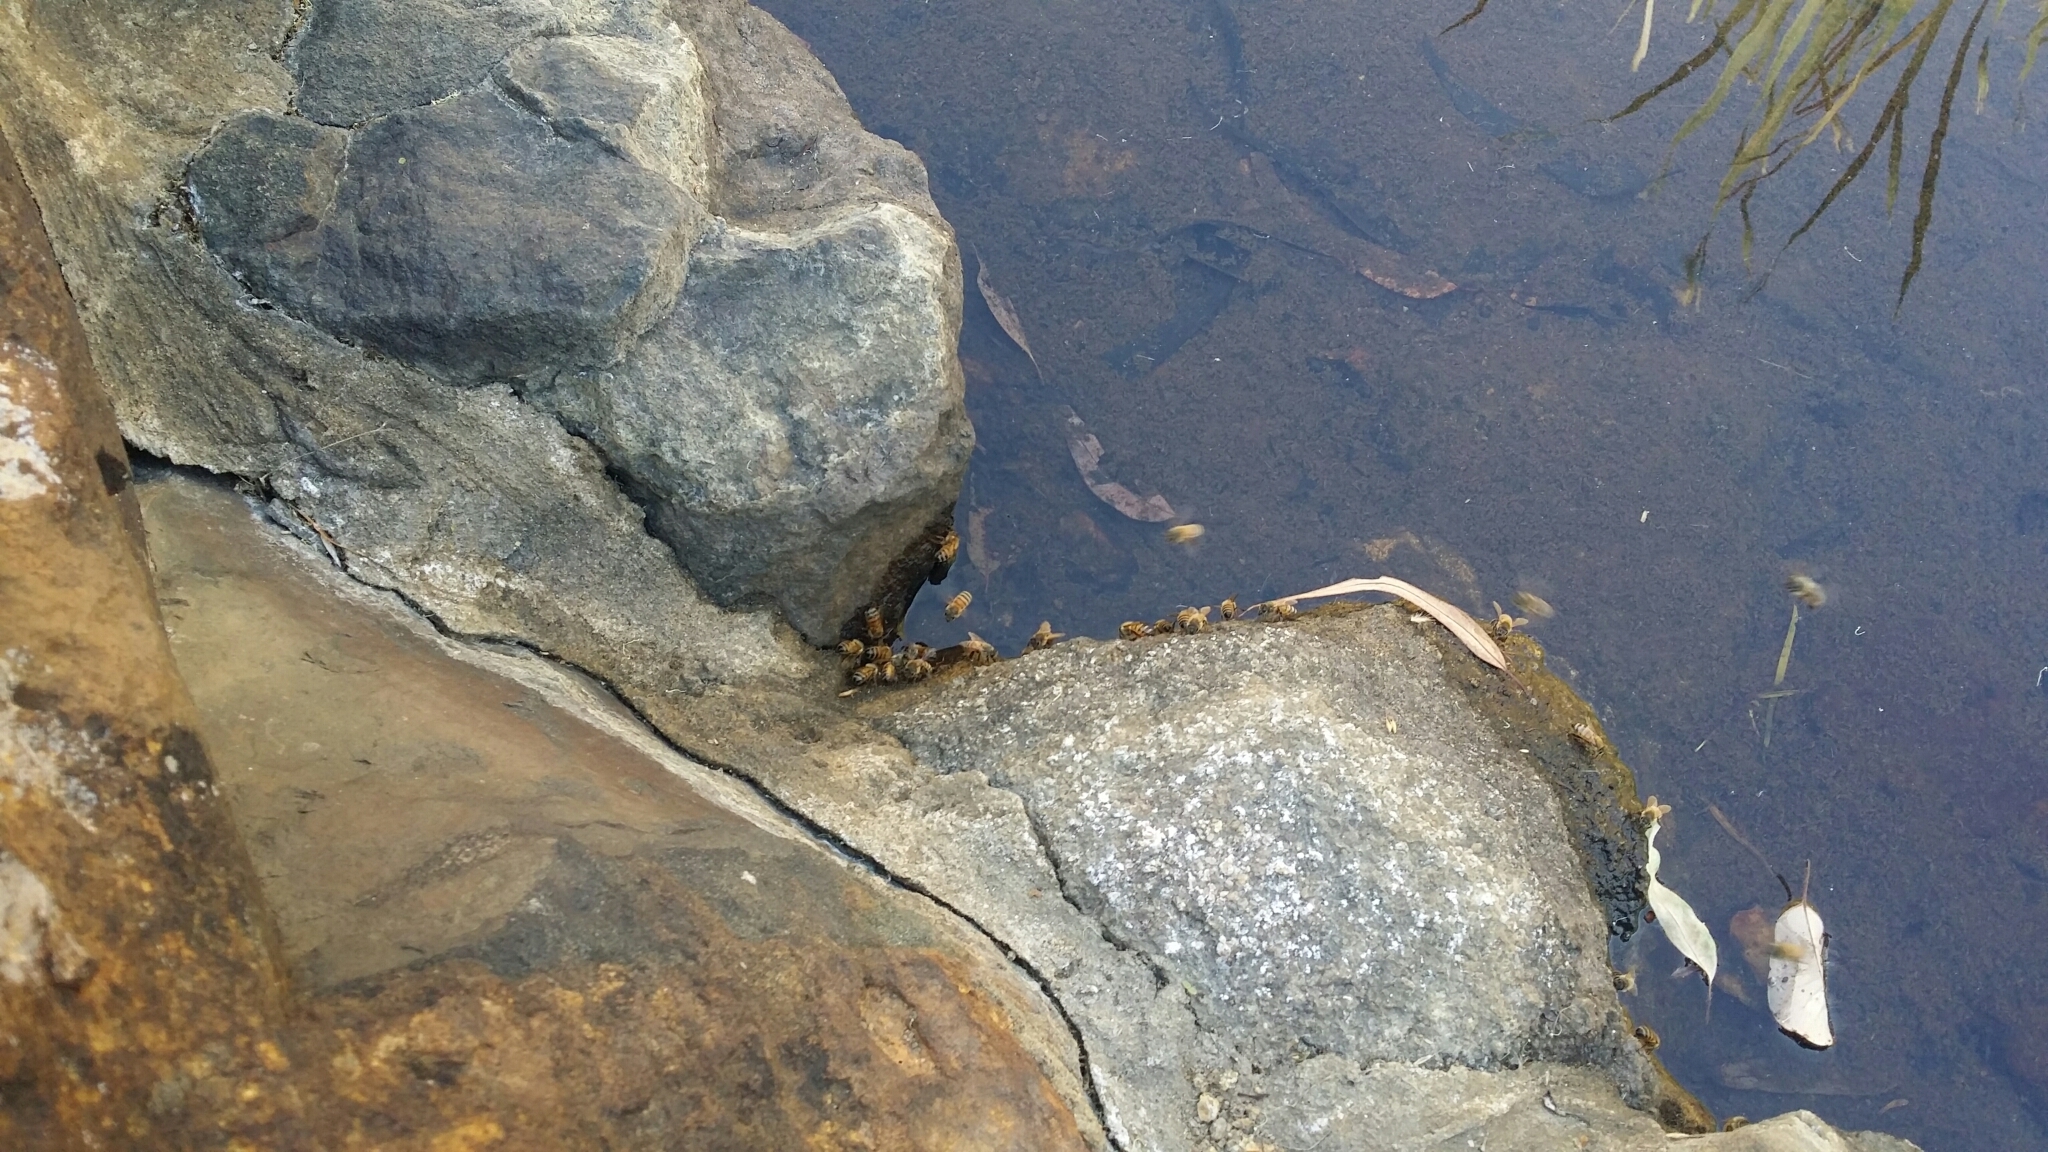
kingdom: Animalia
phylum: Arthropoda
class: Insecta
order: Hymenoptera
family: Apidae
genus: Apis
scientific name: Apis mellifera
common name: Honey bee
